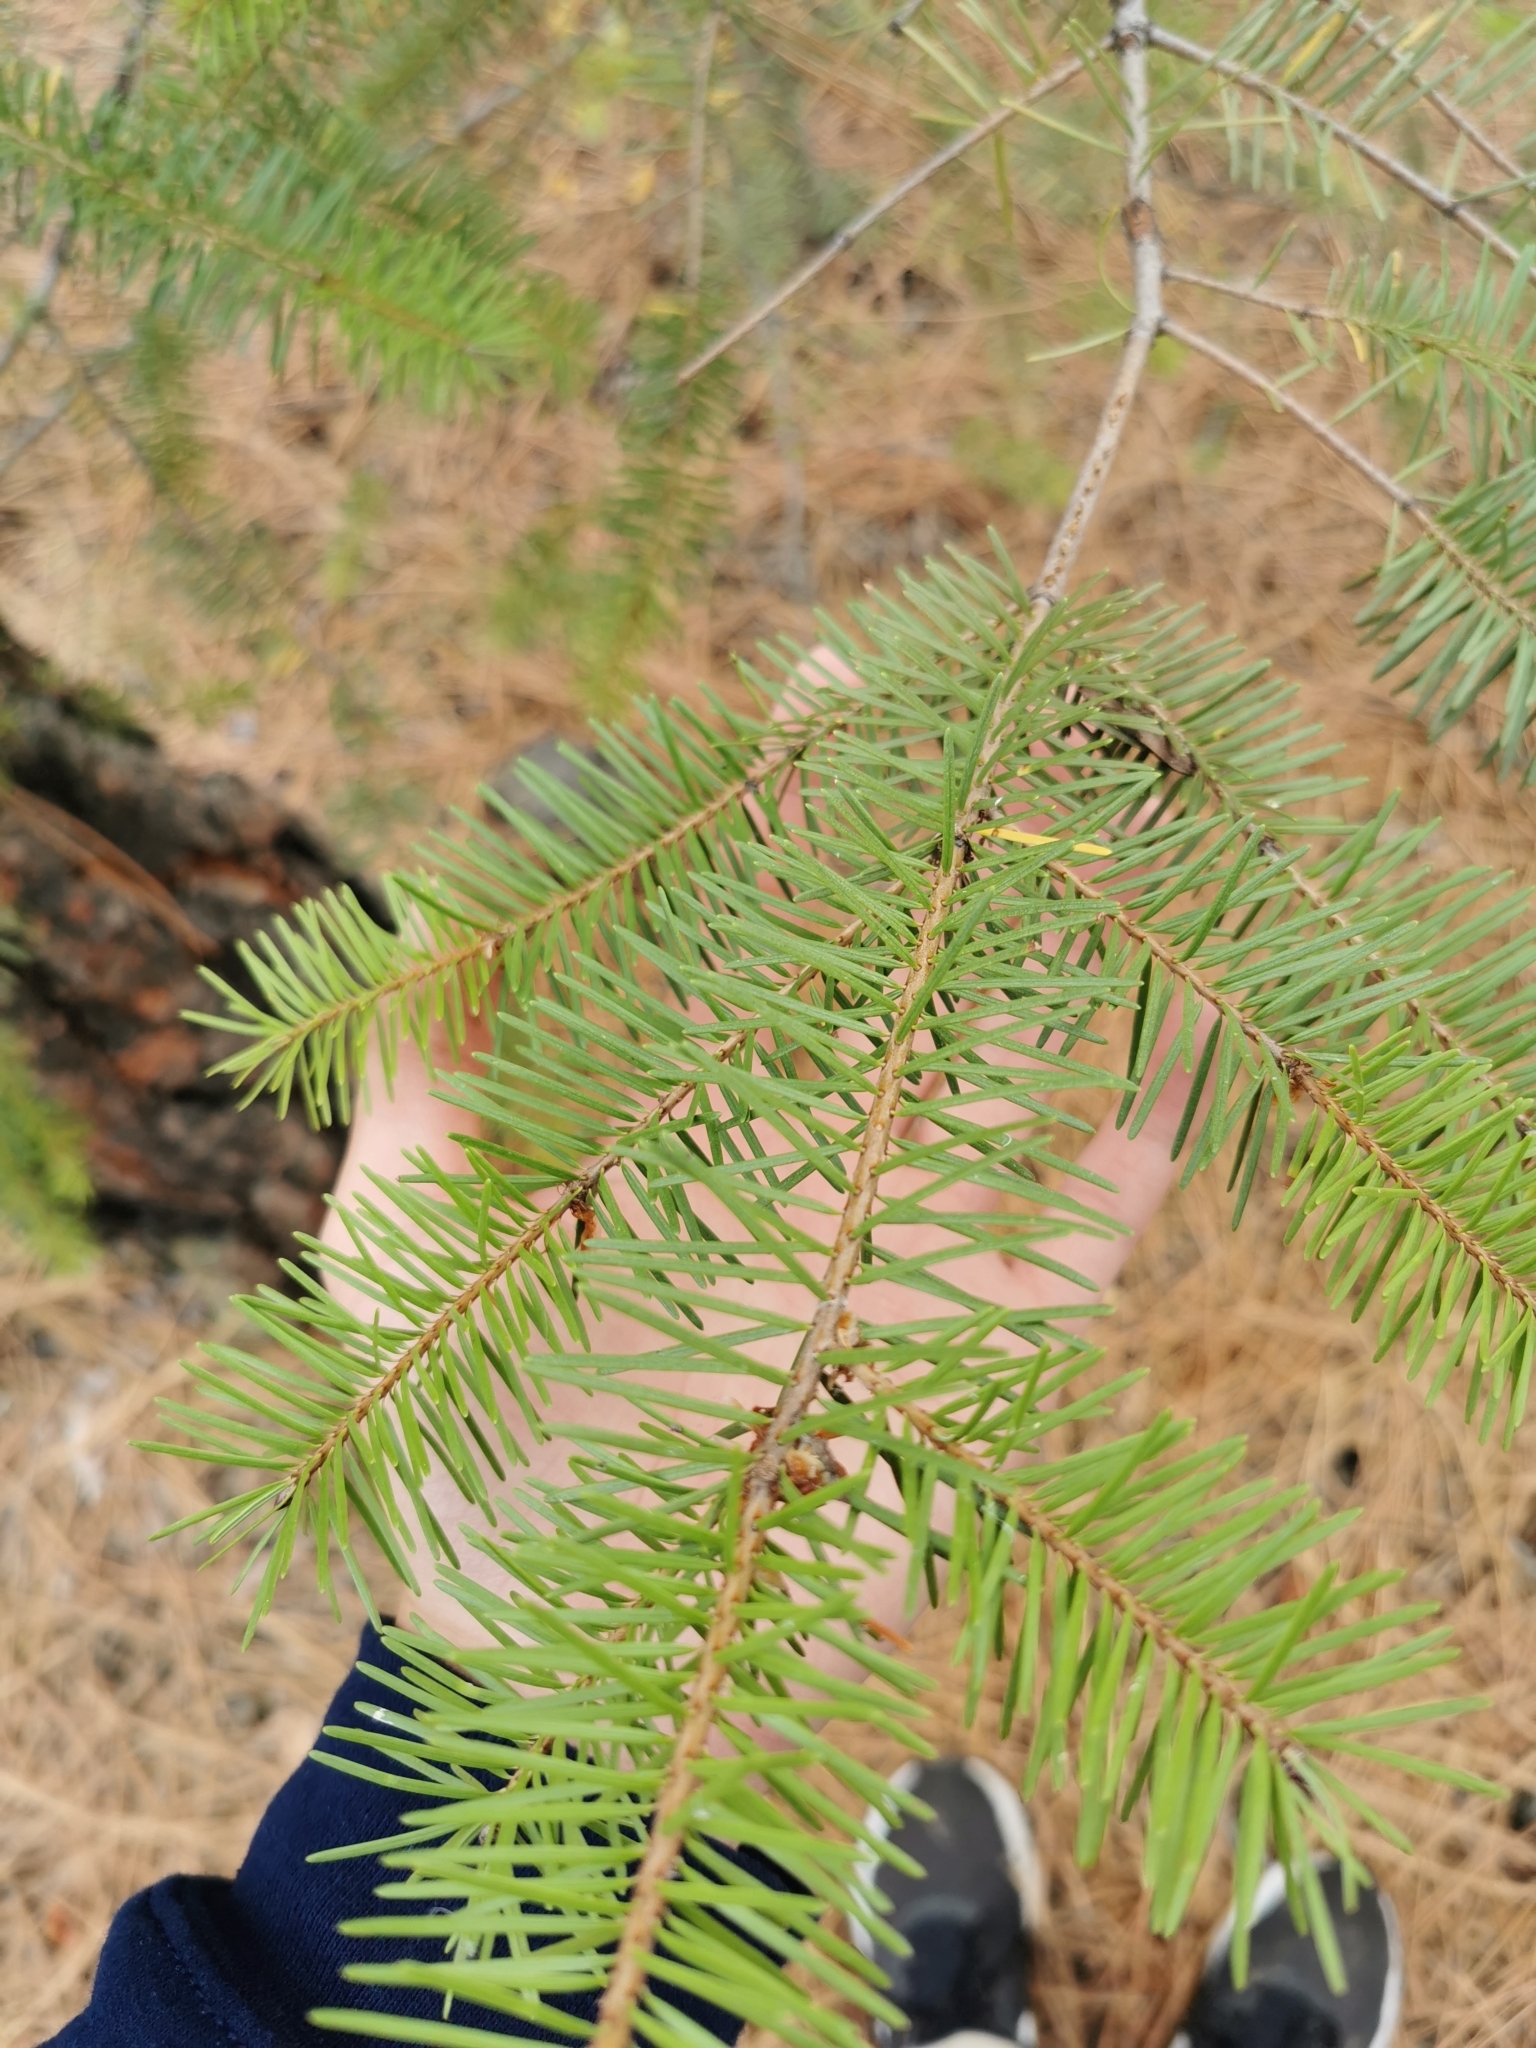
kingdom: Plantae
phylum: Tracheophyta
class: Pinopsida
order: Pinales
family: Pinaceae
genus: Pseudotsuga
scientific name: Pseudotsuga menziesii
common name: Douglas fir
